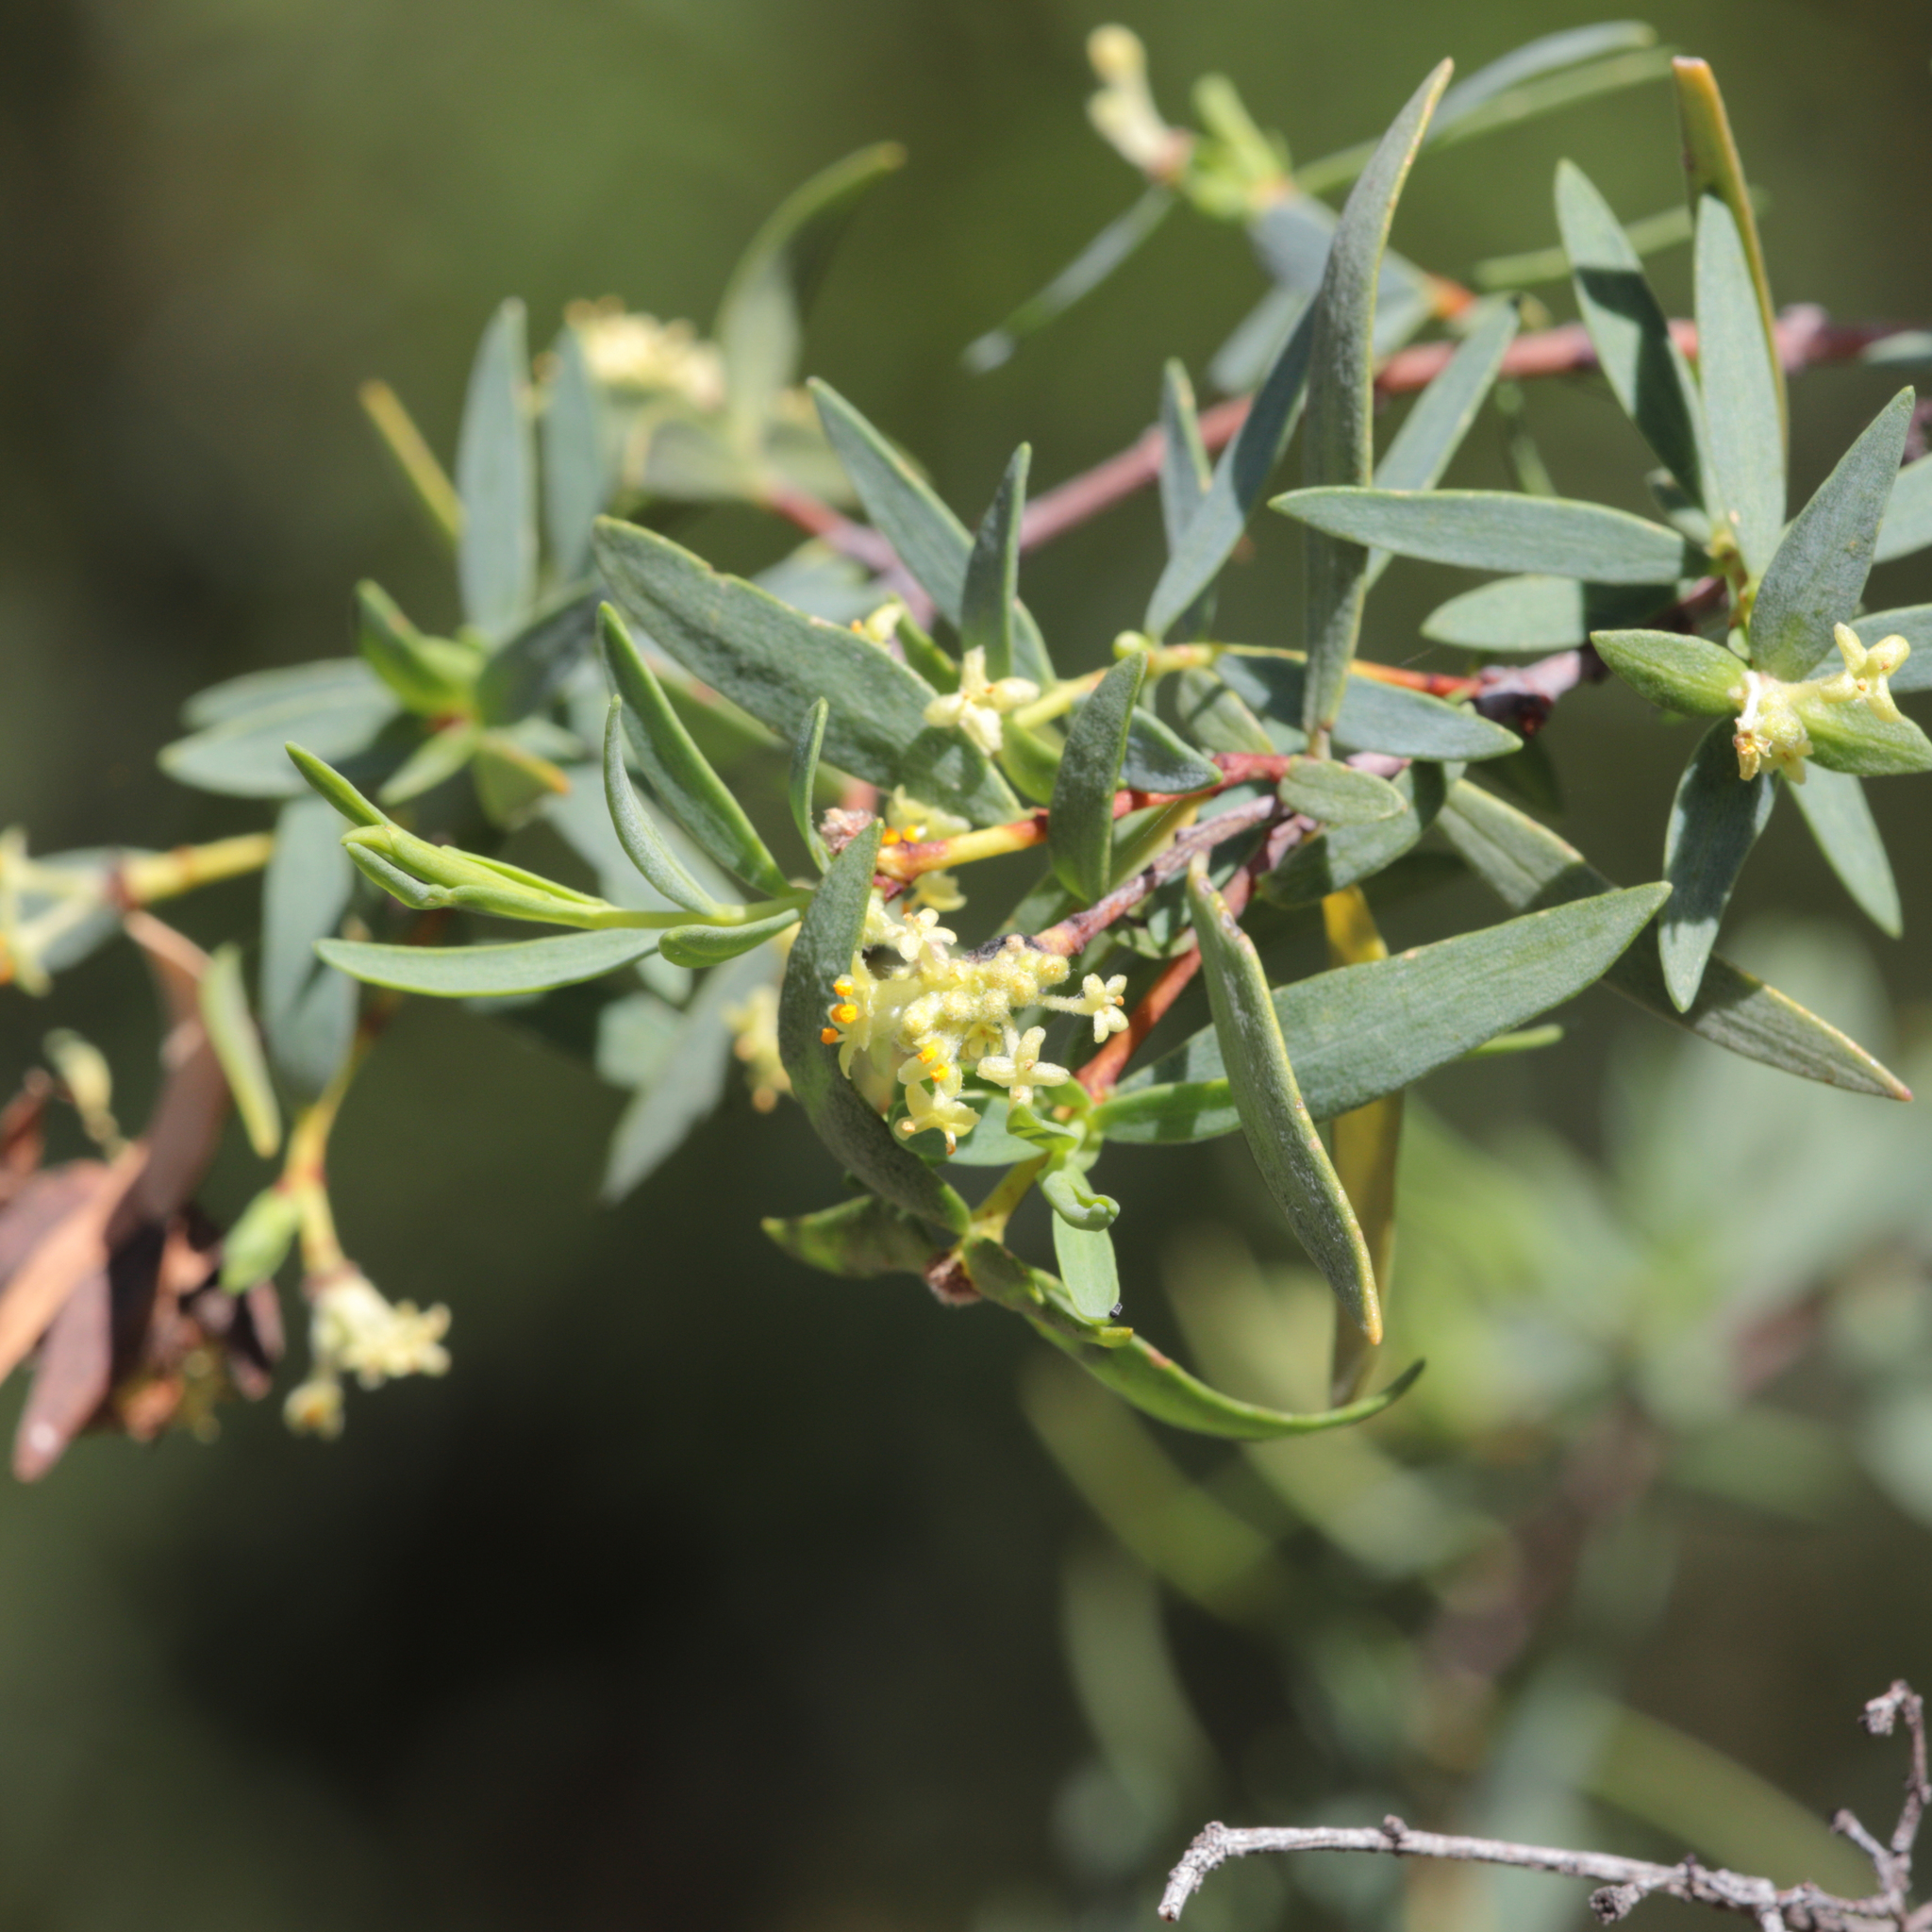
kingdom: Plantae
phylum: Tracheophyta
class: Magnoliopsida
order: Malvales
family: Thymelaeaceae
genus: Pimelea
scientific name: Pimelea microcephala
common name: Mallee riceflower
